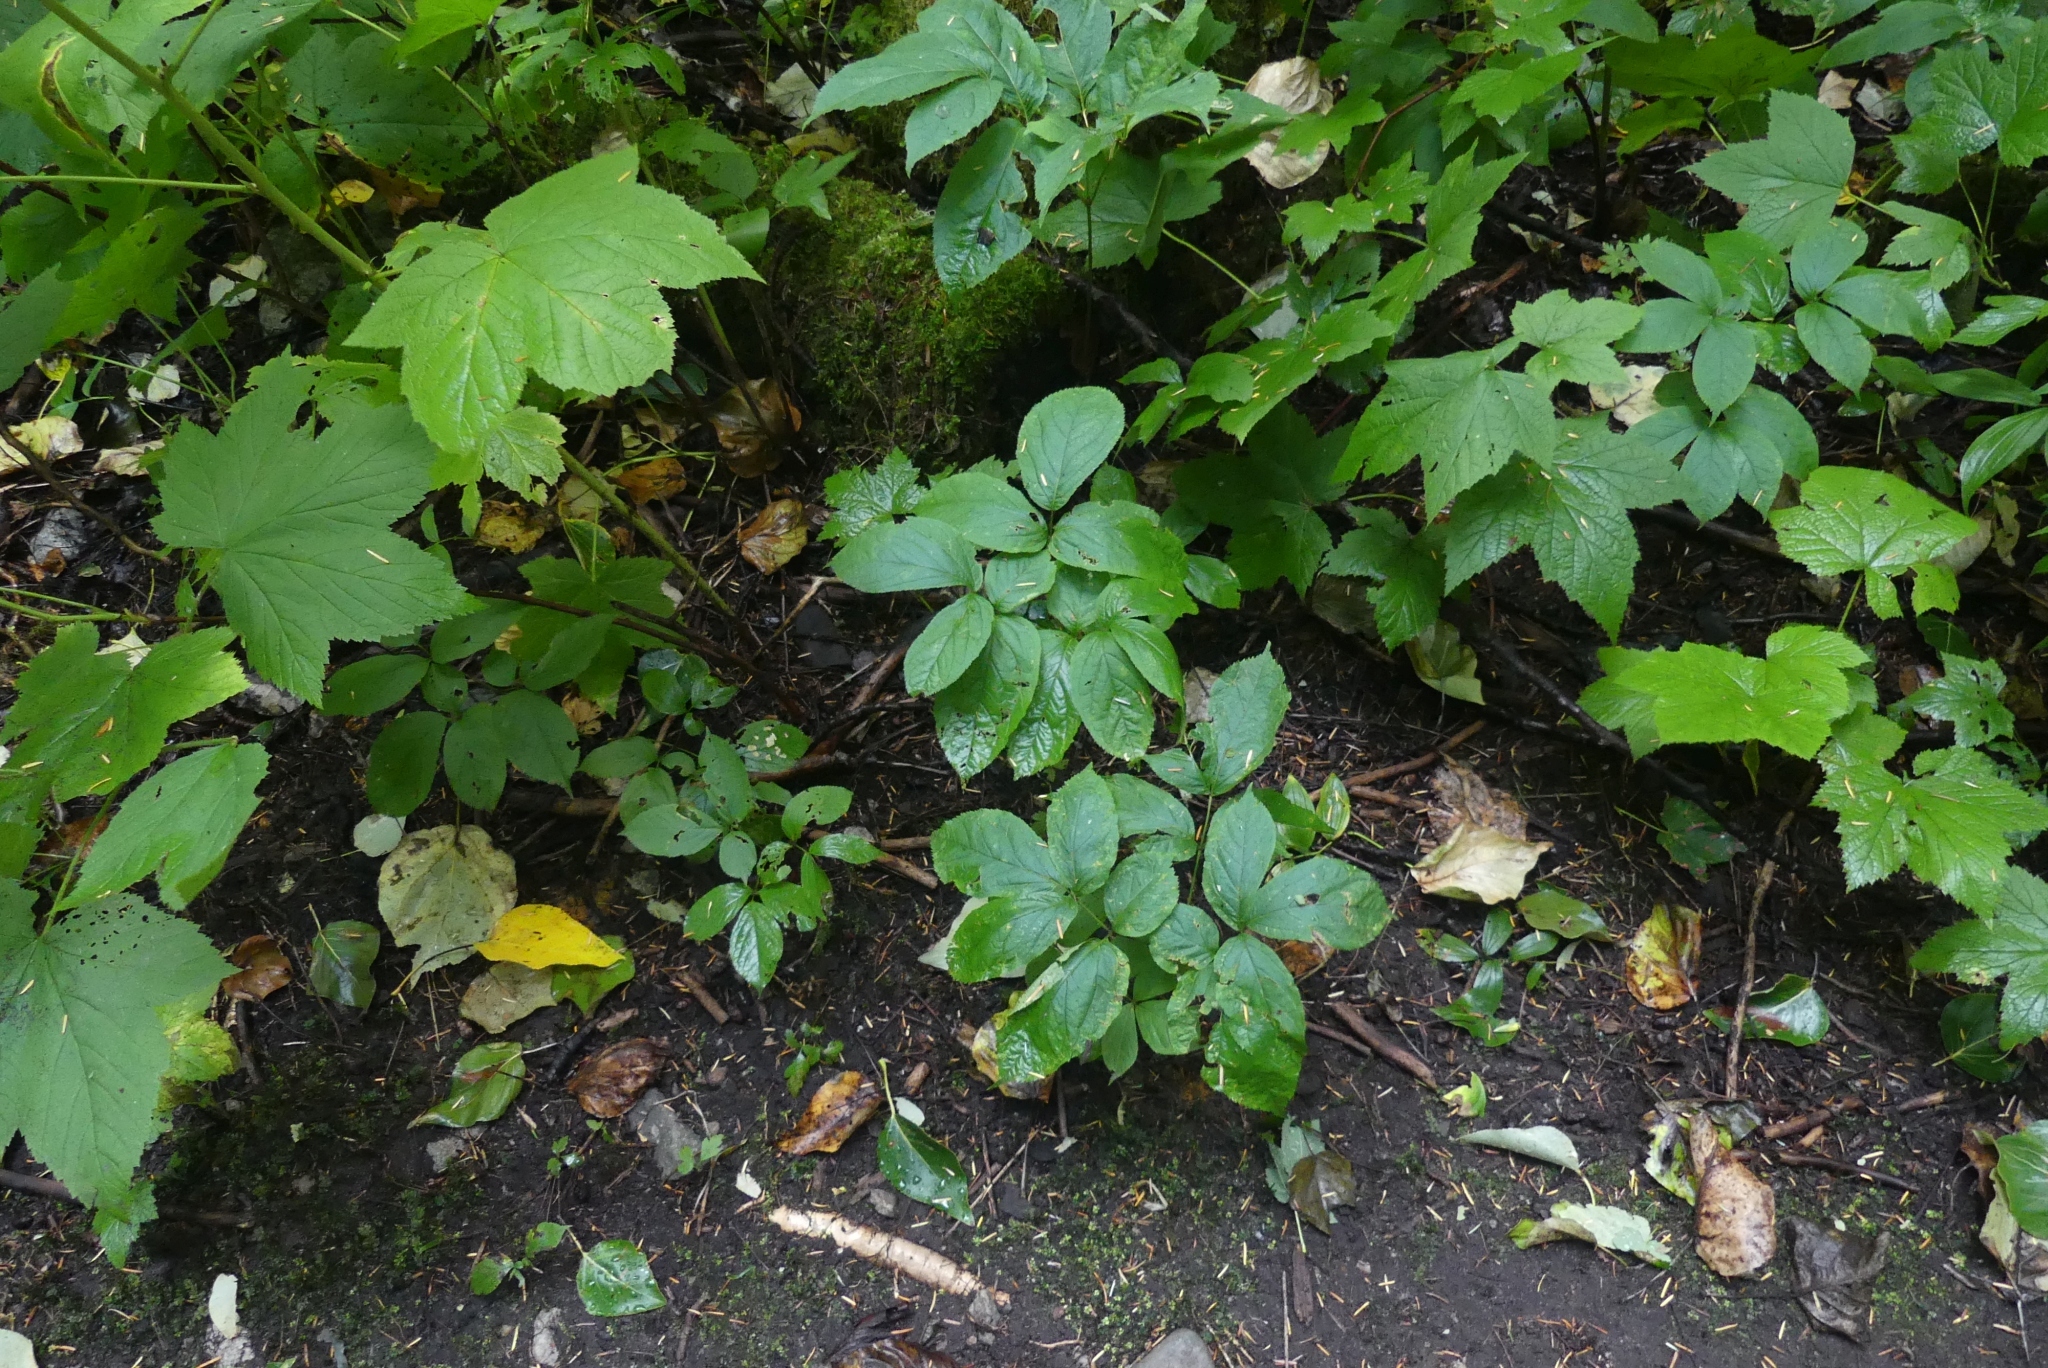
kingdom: Plantae
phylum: Tracheophyta
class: Magnoliopsida
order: Apiales
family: Araliaceae
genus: Aralia
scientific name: Aralia nudicaulis
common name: Wild sarsaparilla
